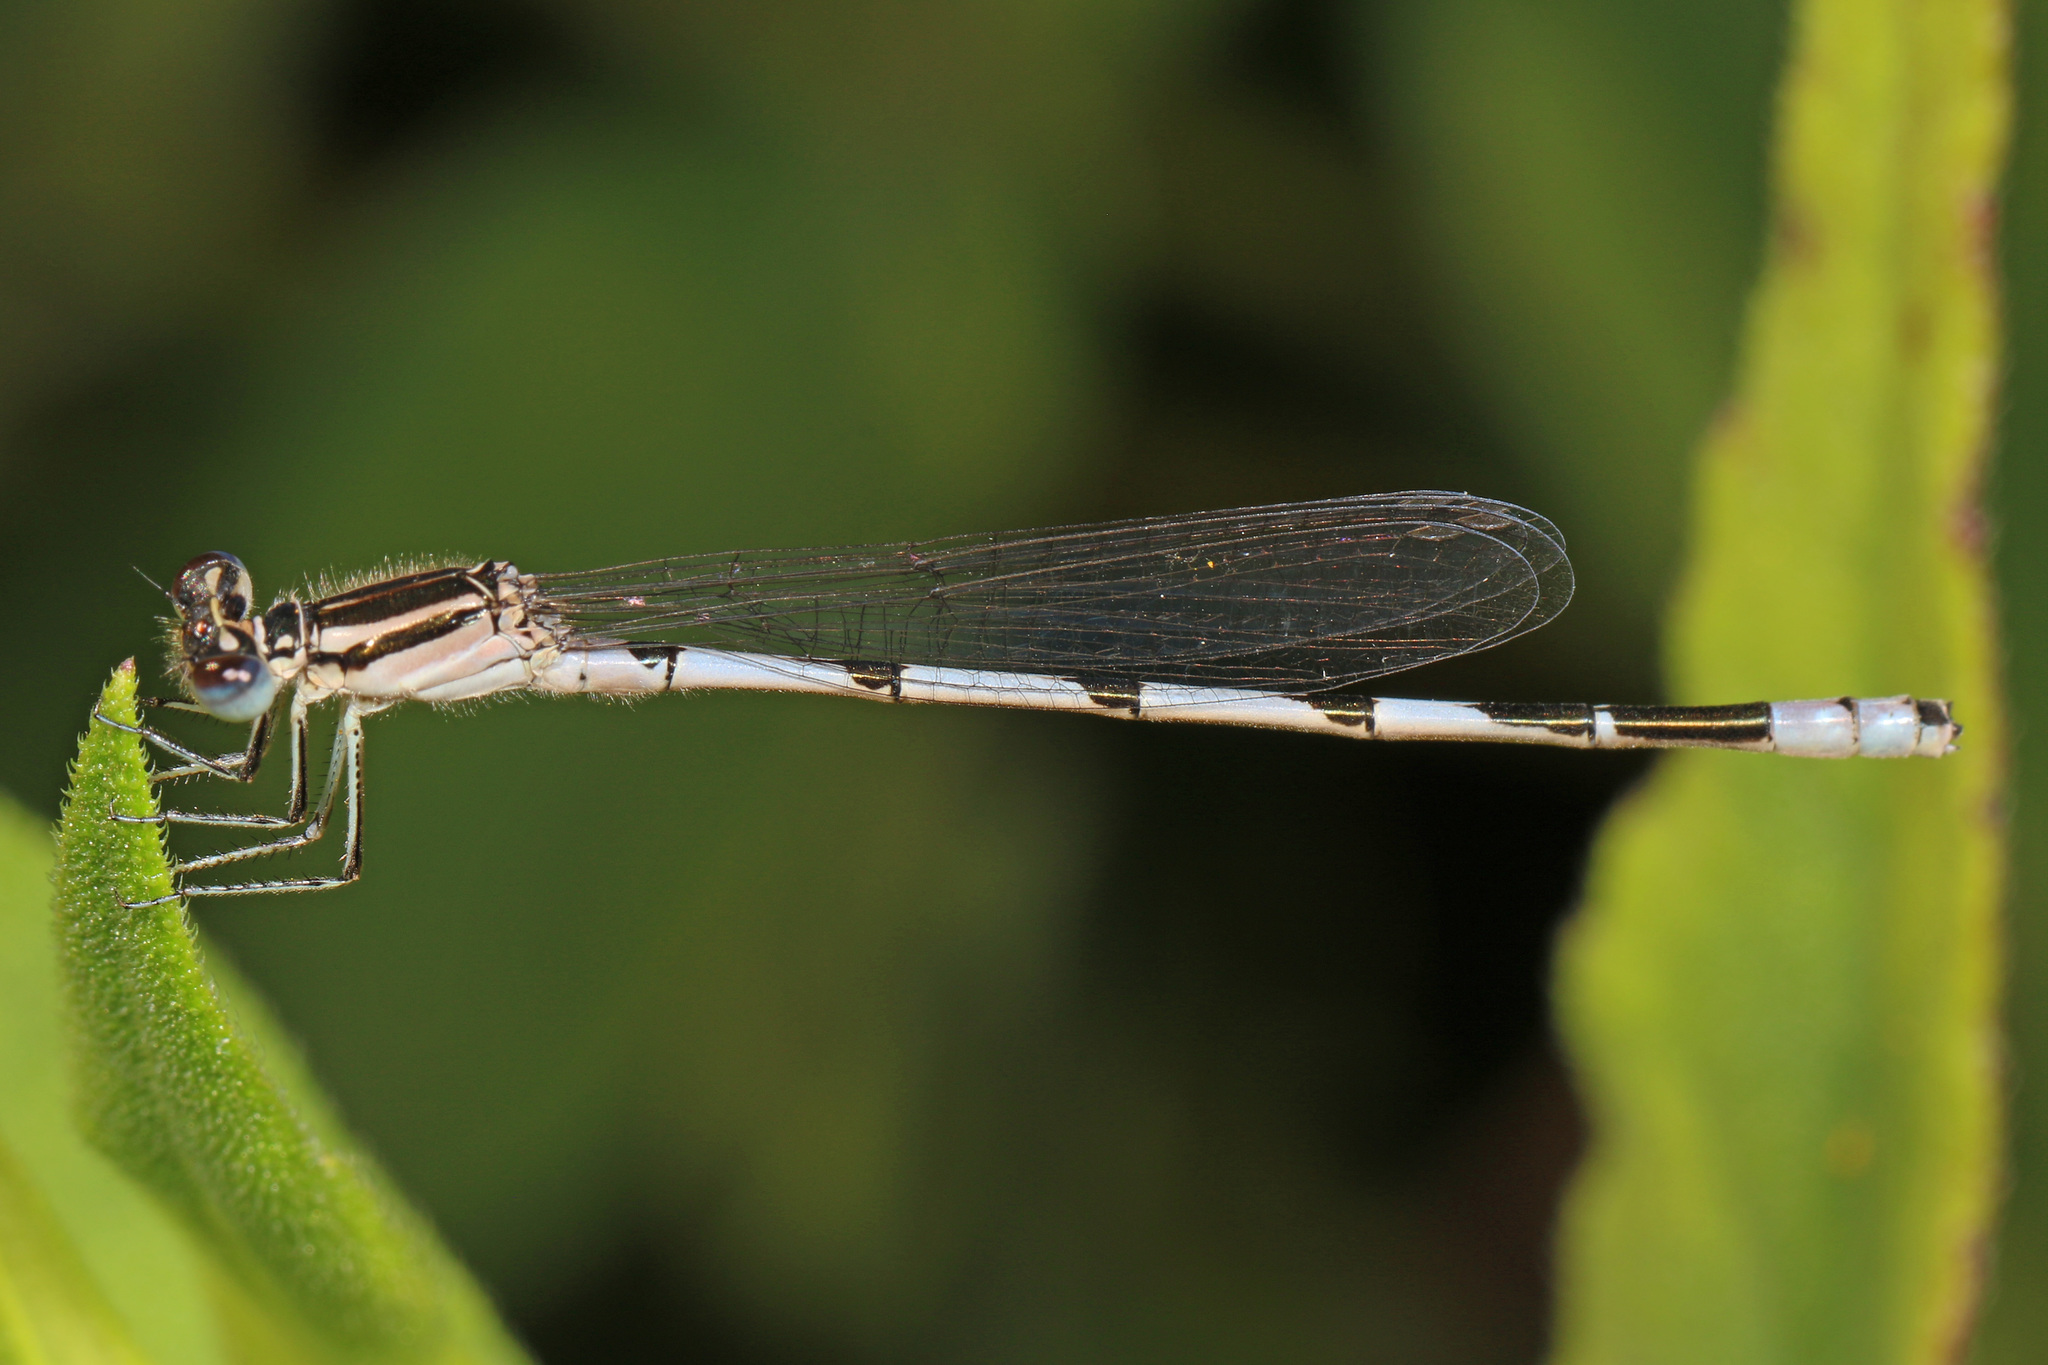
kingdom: Animalia
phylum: Arthropoda
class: Insecta
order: Odonata
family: Coenagrionidae
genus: Enallagma
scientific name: Enallagma durum
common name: Big bluet
